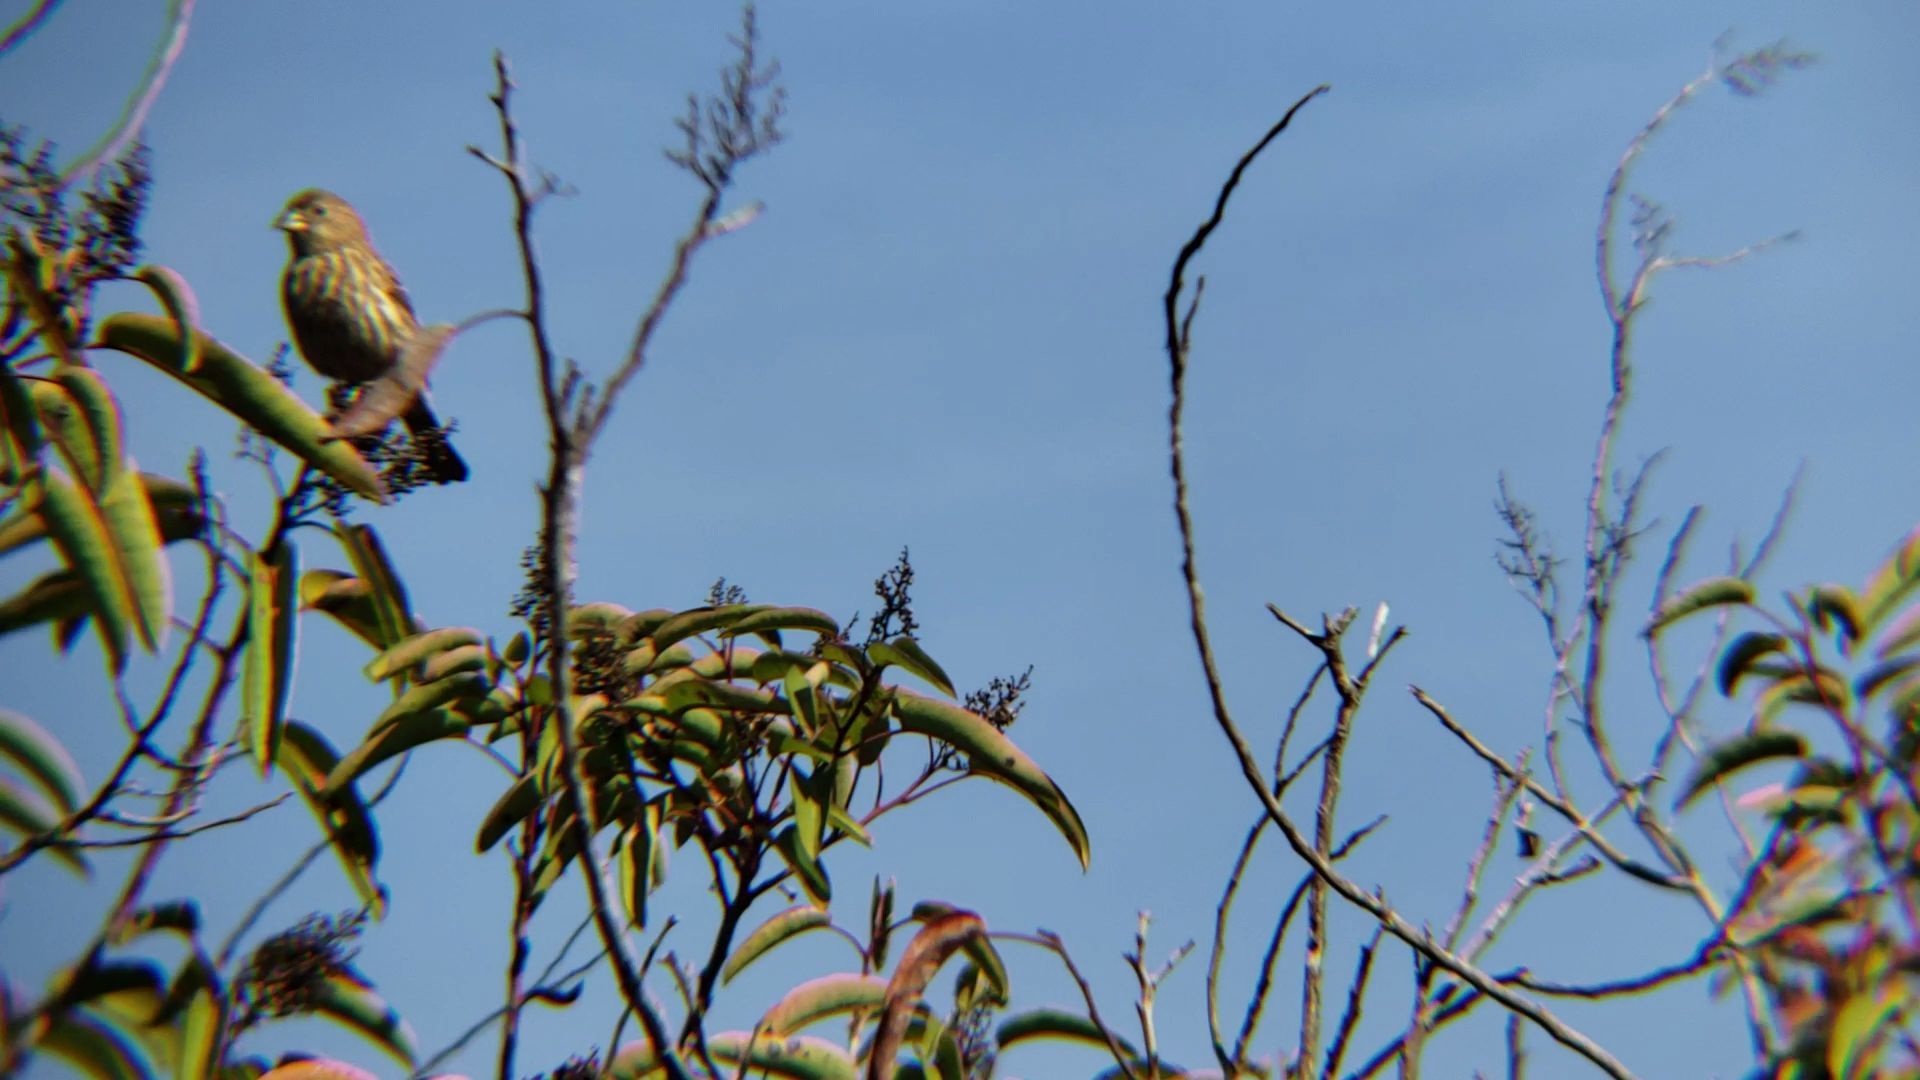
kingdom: Animalia
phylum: Chordata
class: Aves
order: Passeriformes
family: Fringillidae
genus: Haemorhous
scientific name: Haemorhous mexicanus
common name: House finch
